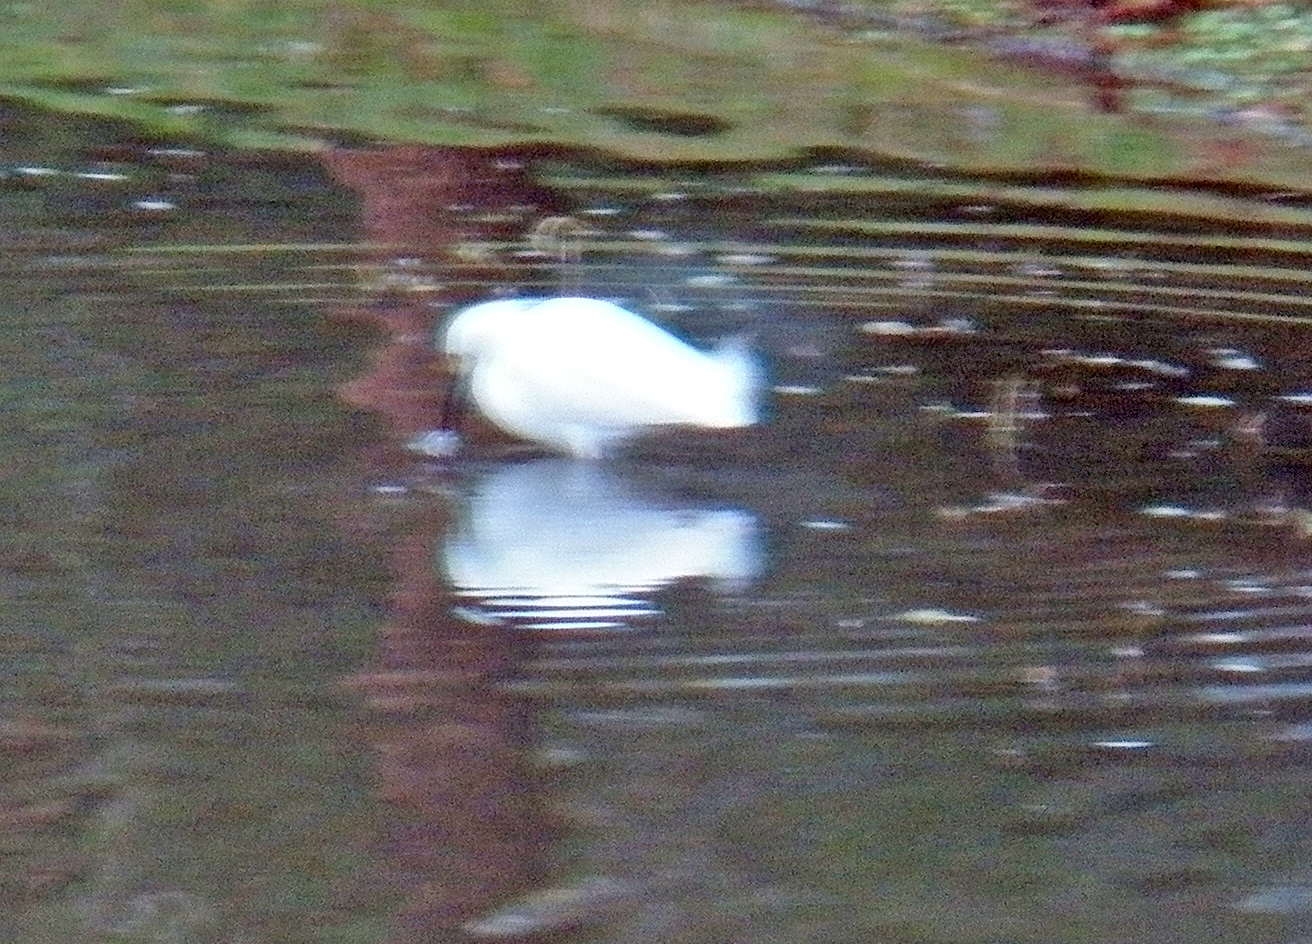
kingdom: Animalia
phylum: Chordata
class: Aves
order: Pelecaniformes
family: Ardeidae
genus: Egretta
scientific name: Egretta thula
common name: Snowy egret
